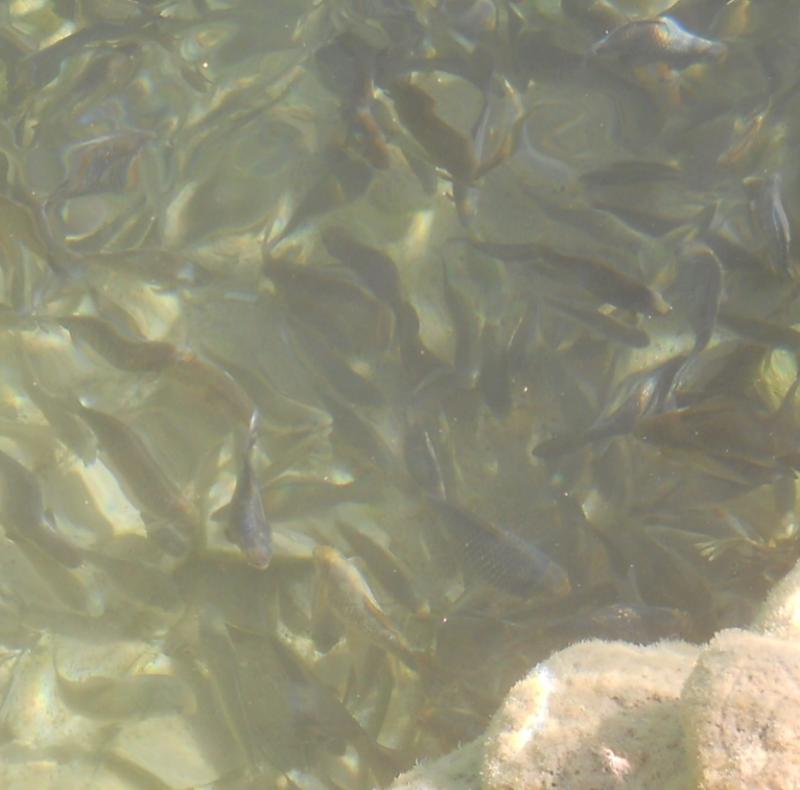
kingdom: Animalia
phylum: Chordata
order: Cypriniformes
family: Cyprinidae
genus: Carassius
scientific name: Carassius auratus
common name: Goldfish
